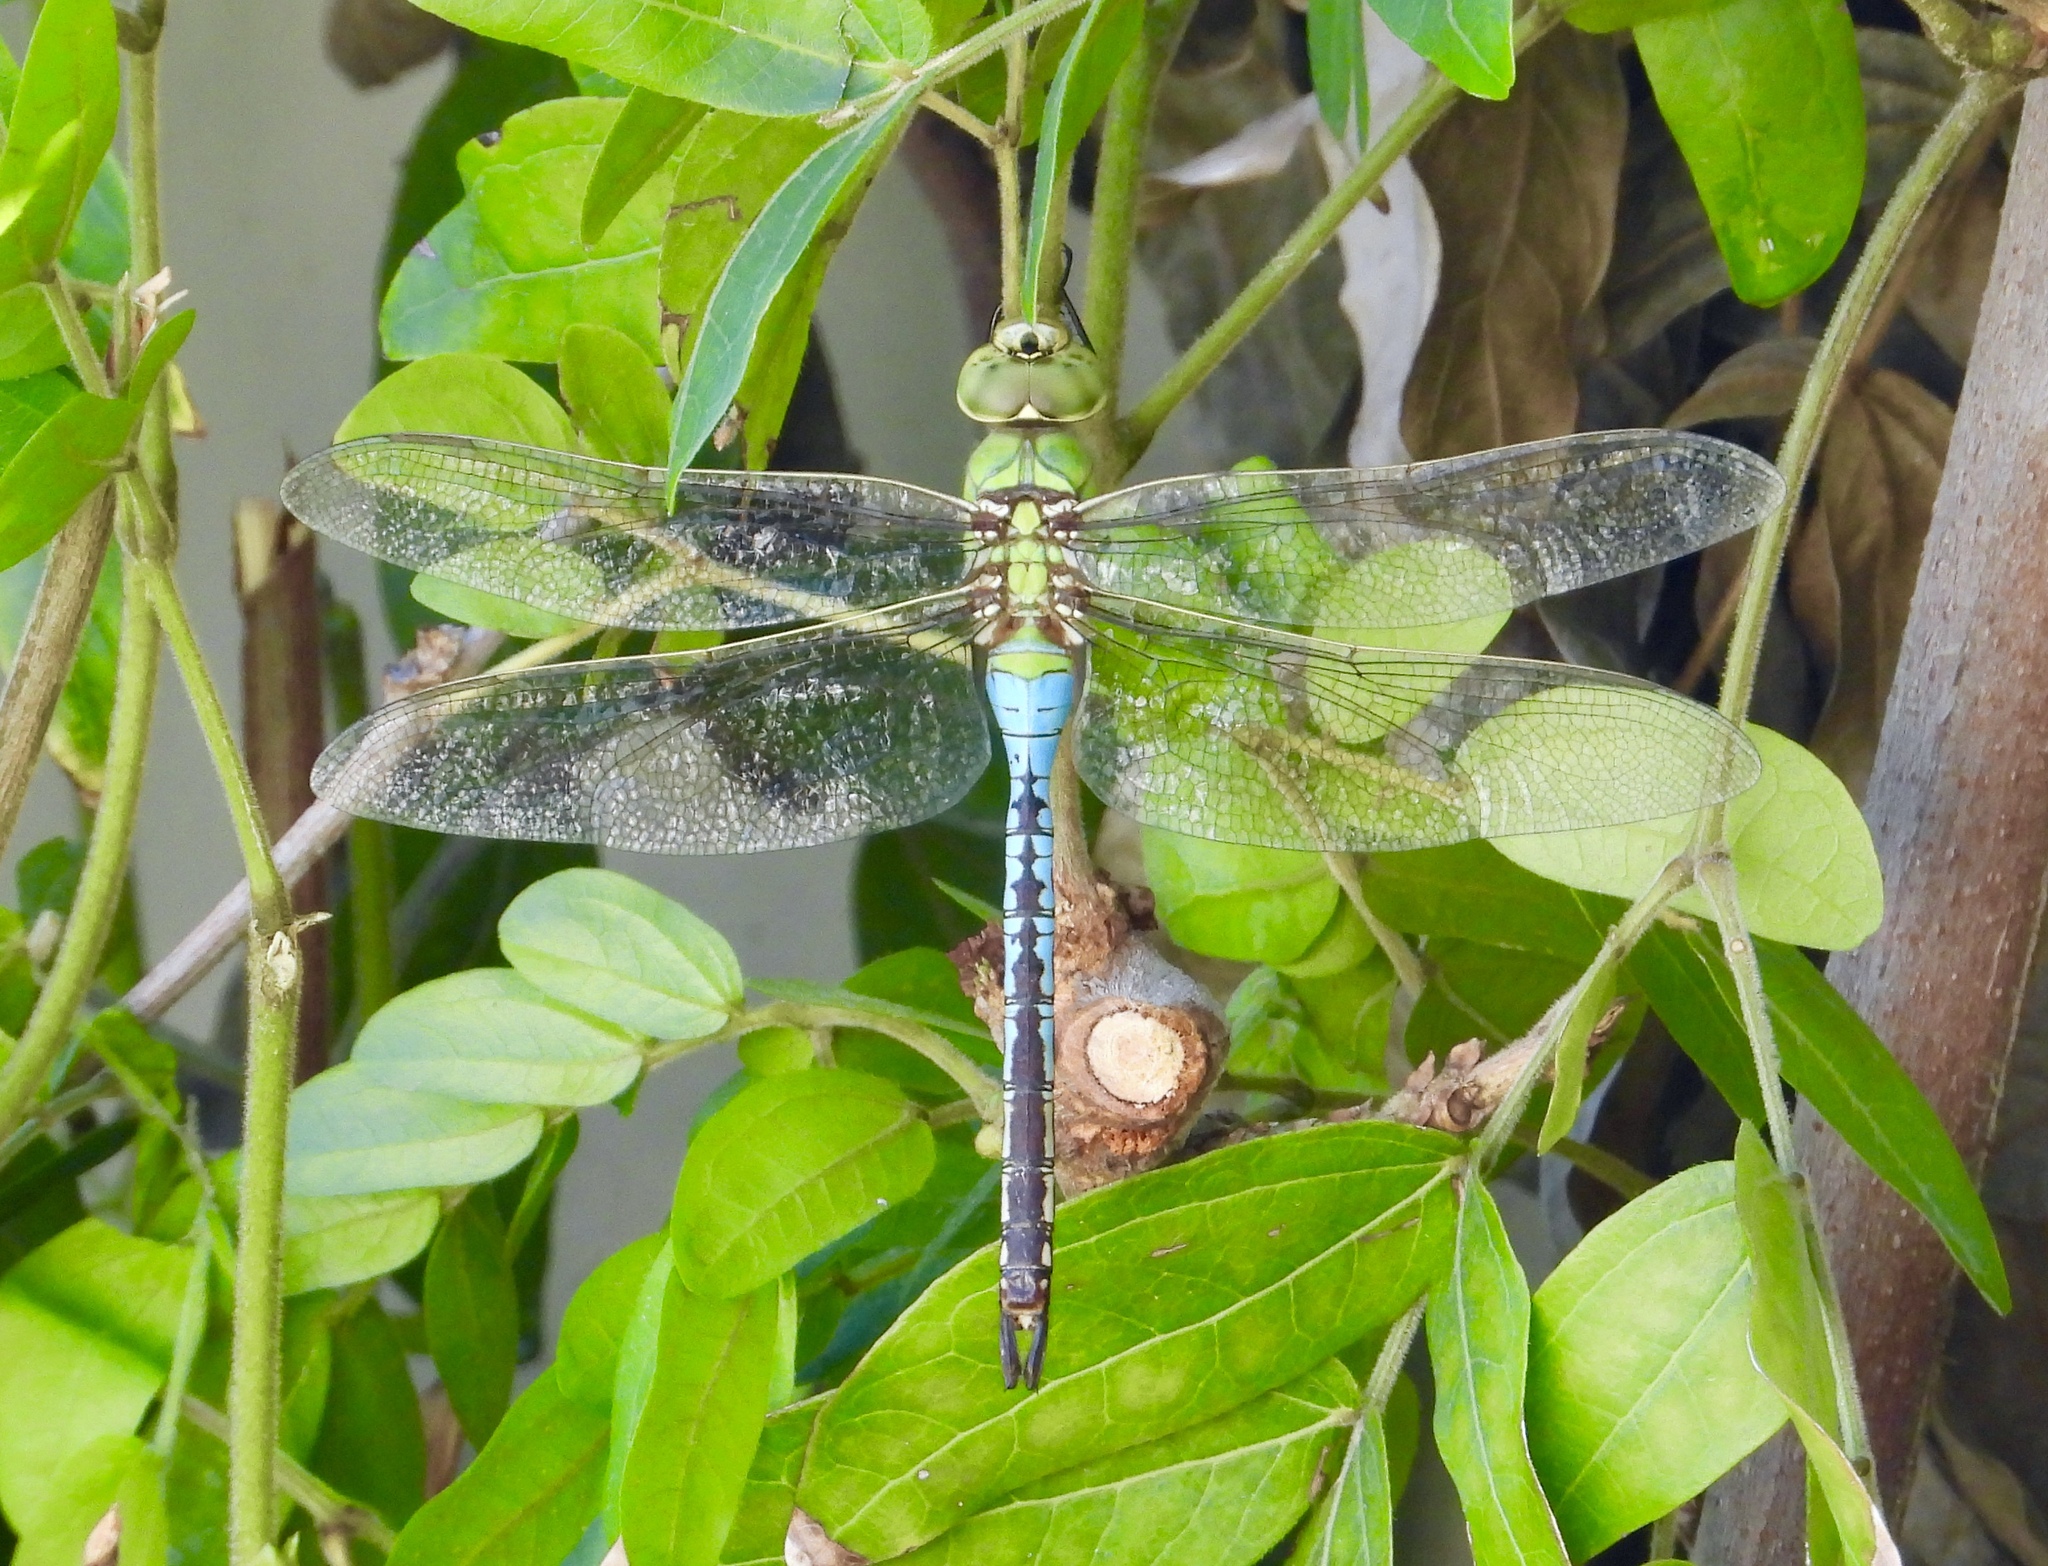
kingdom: Animalia
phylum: Arthropoda
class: Insecta
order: Odonata
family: Aeshnidae
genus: Anax
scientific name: Anax junius
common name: Common green darner
